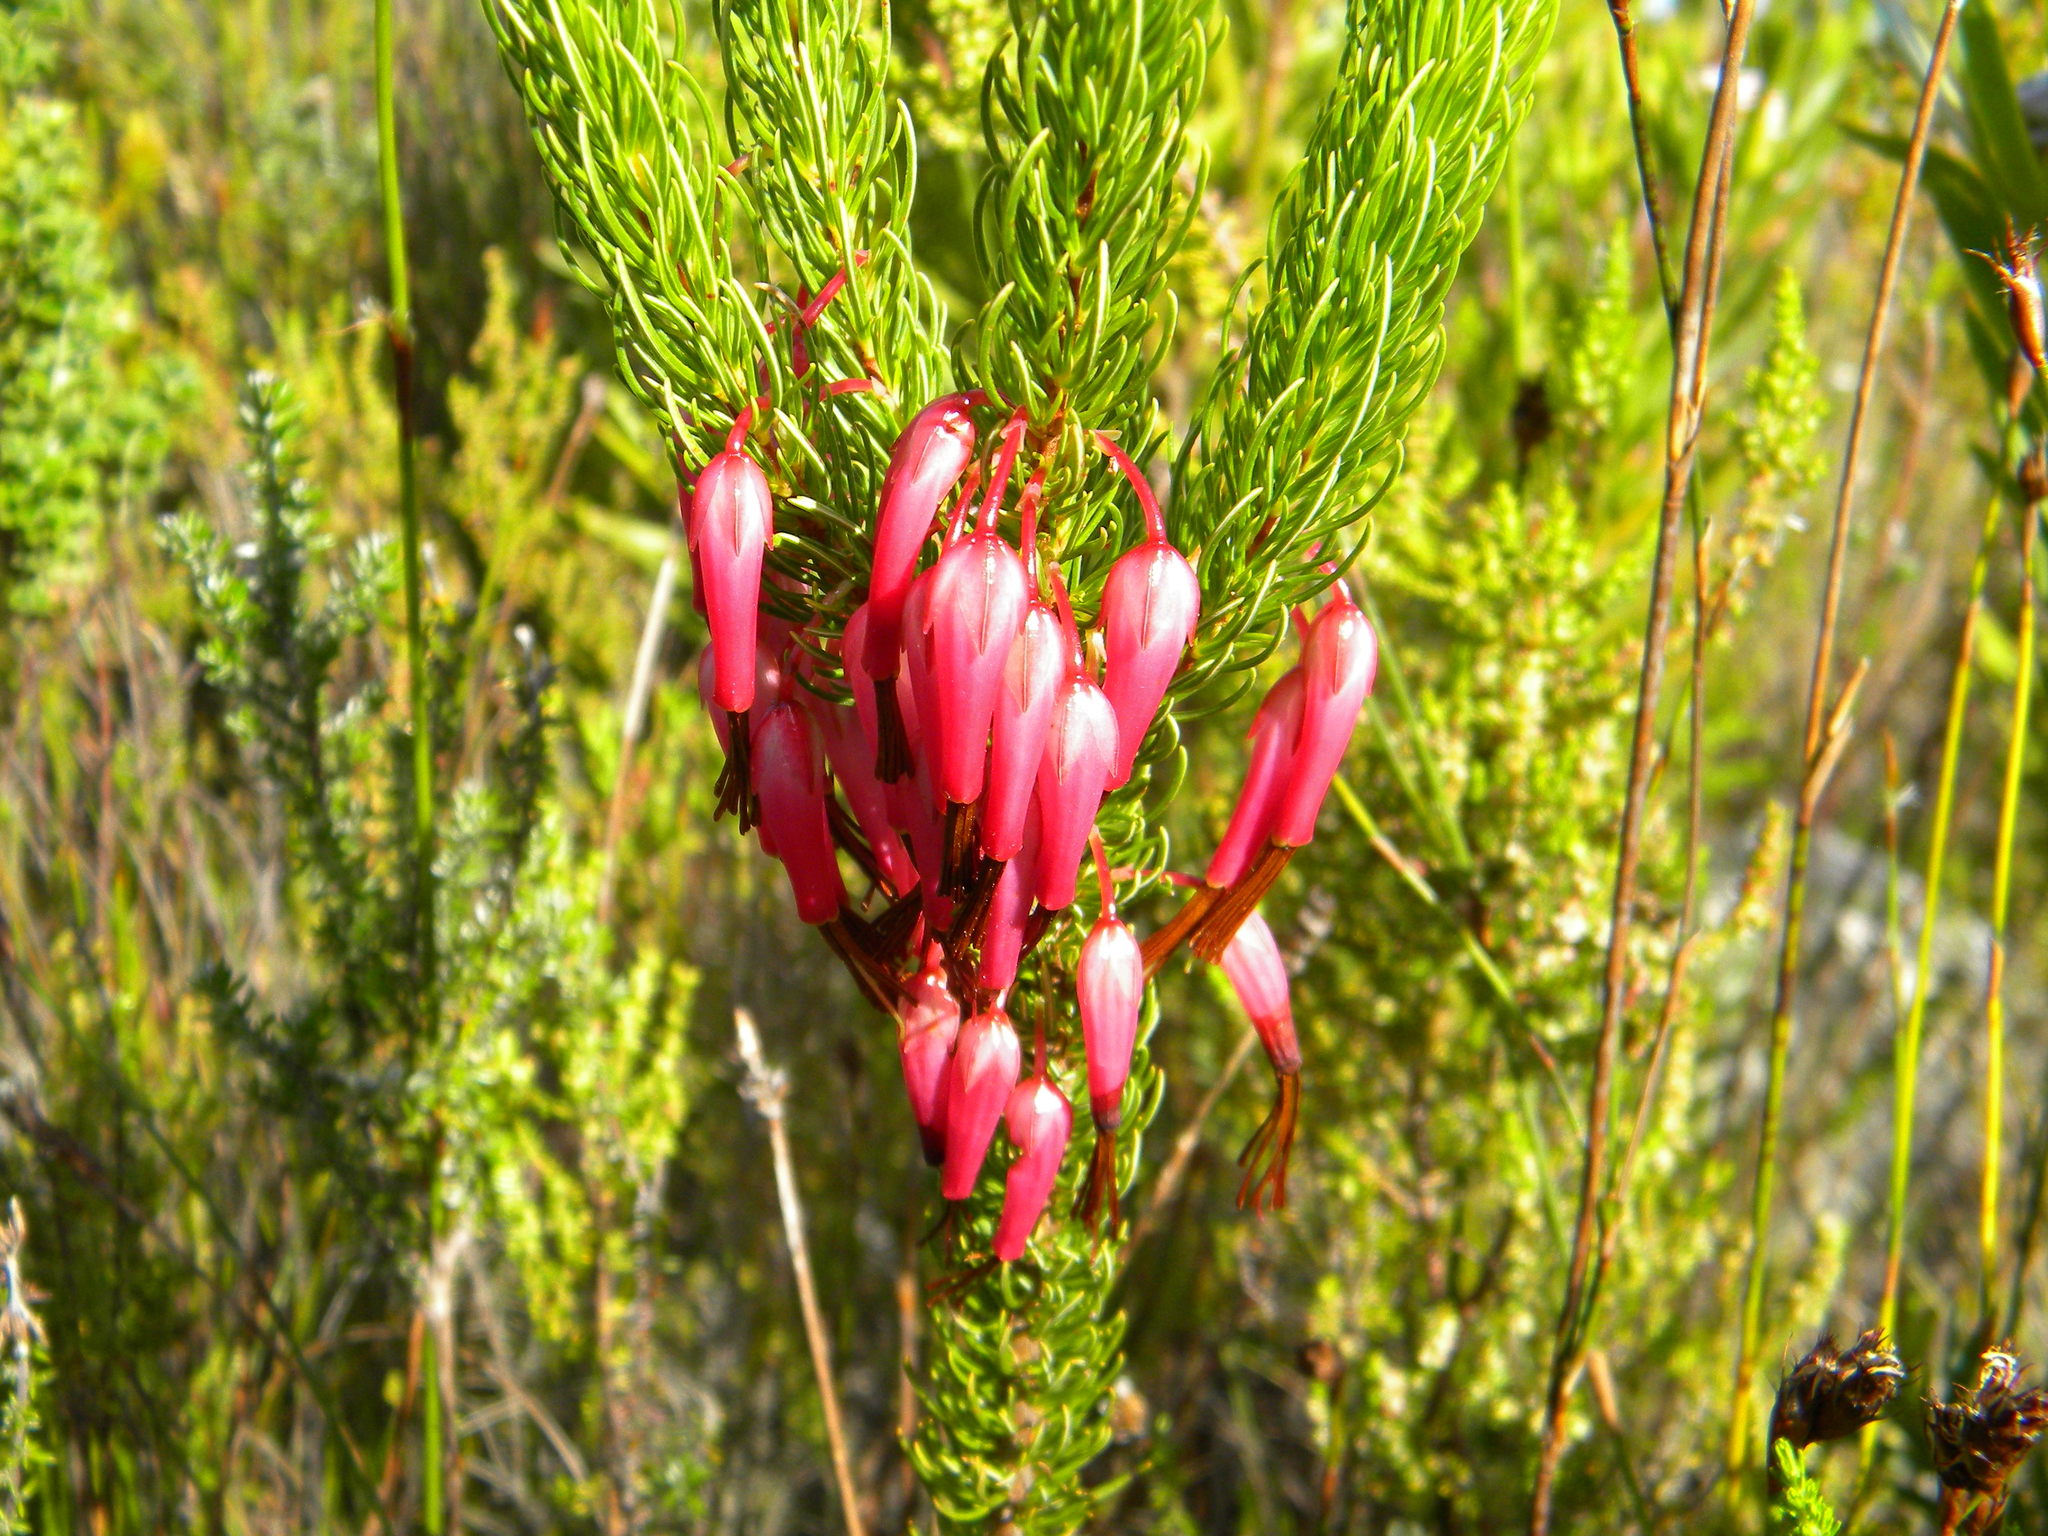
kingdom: Plantae
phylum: Tracheophyta
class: Magnoliopsida
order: Ericales
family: Ericaceae
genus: Erica
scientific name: Erica plukenetii
